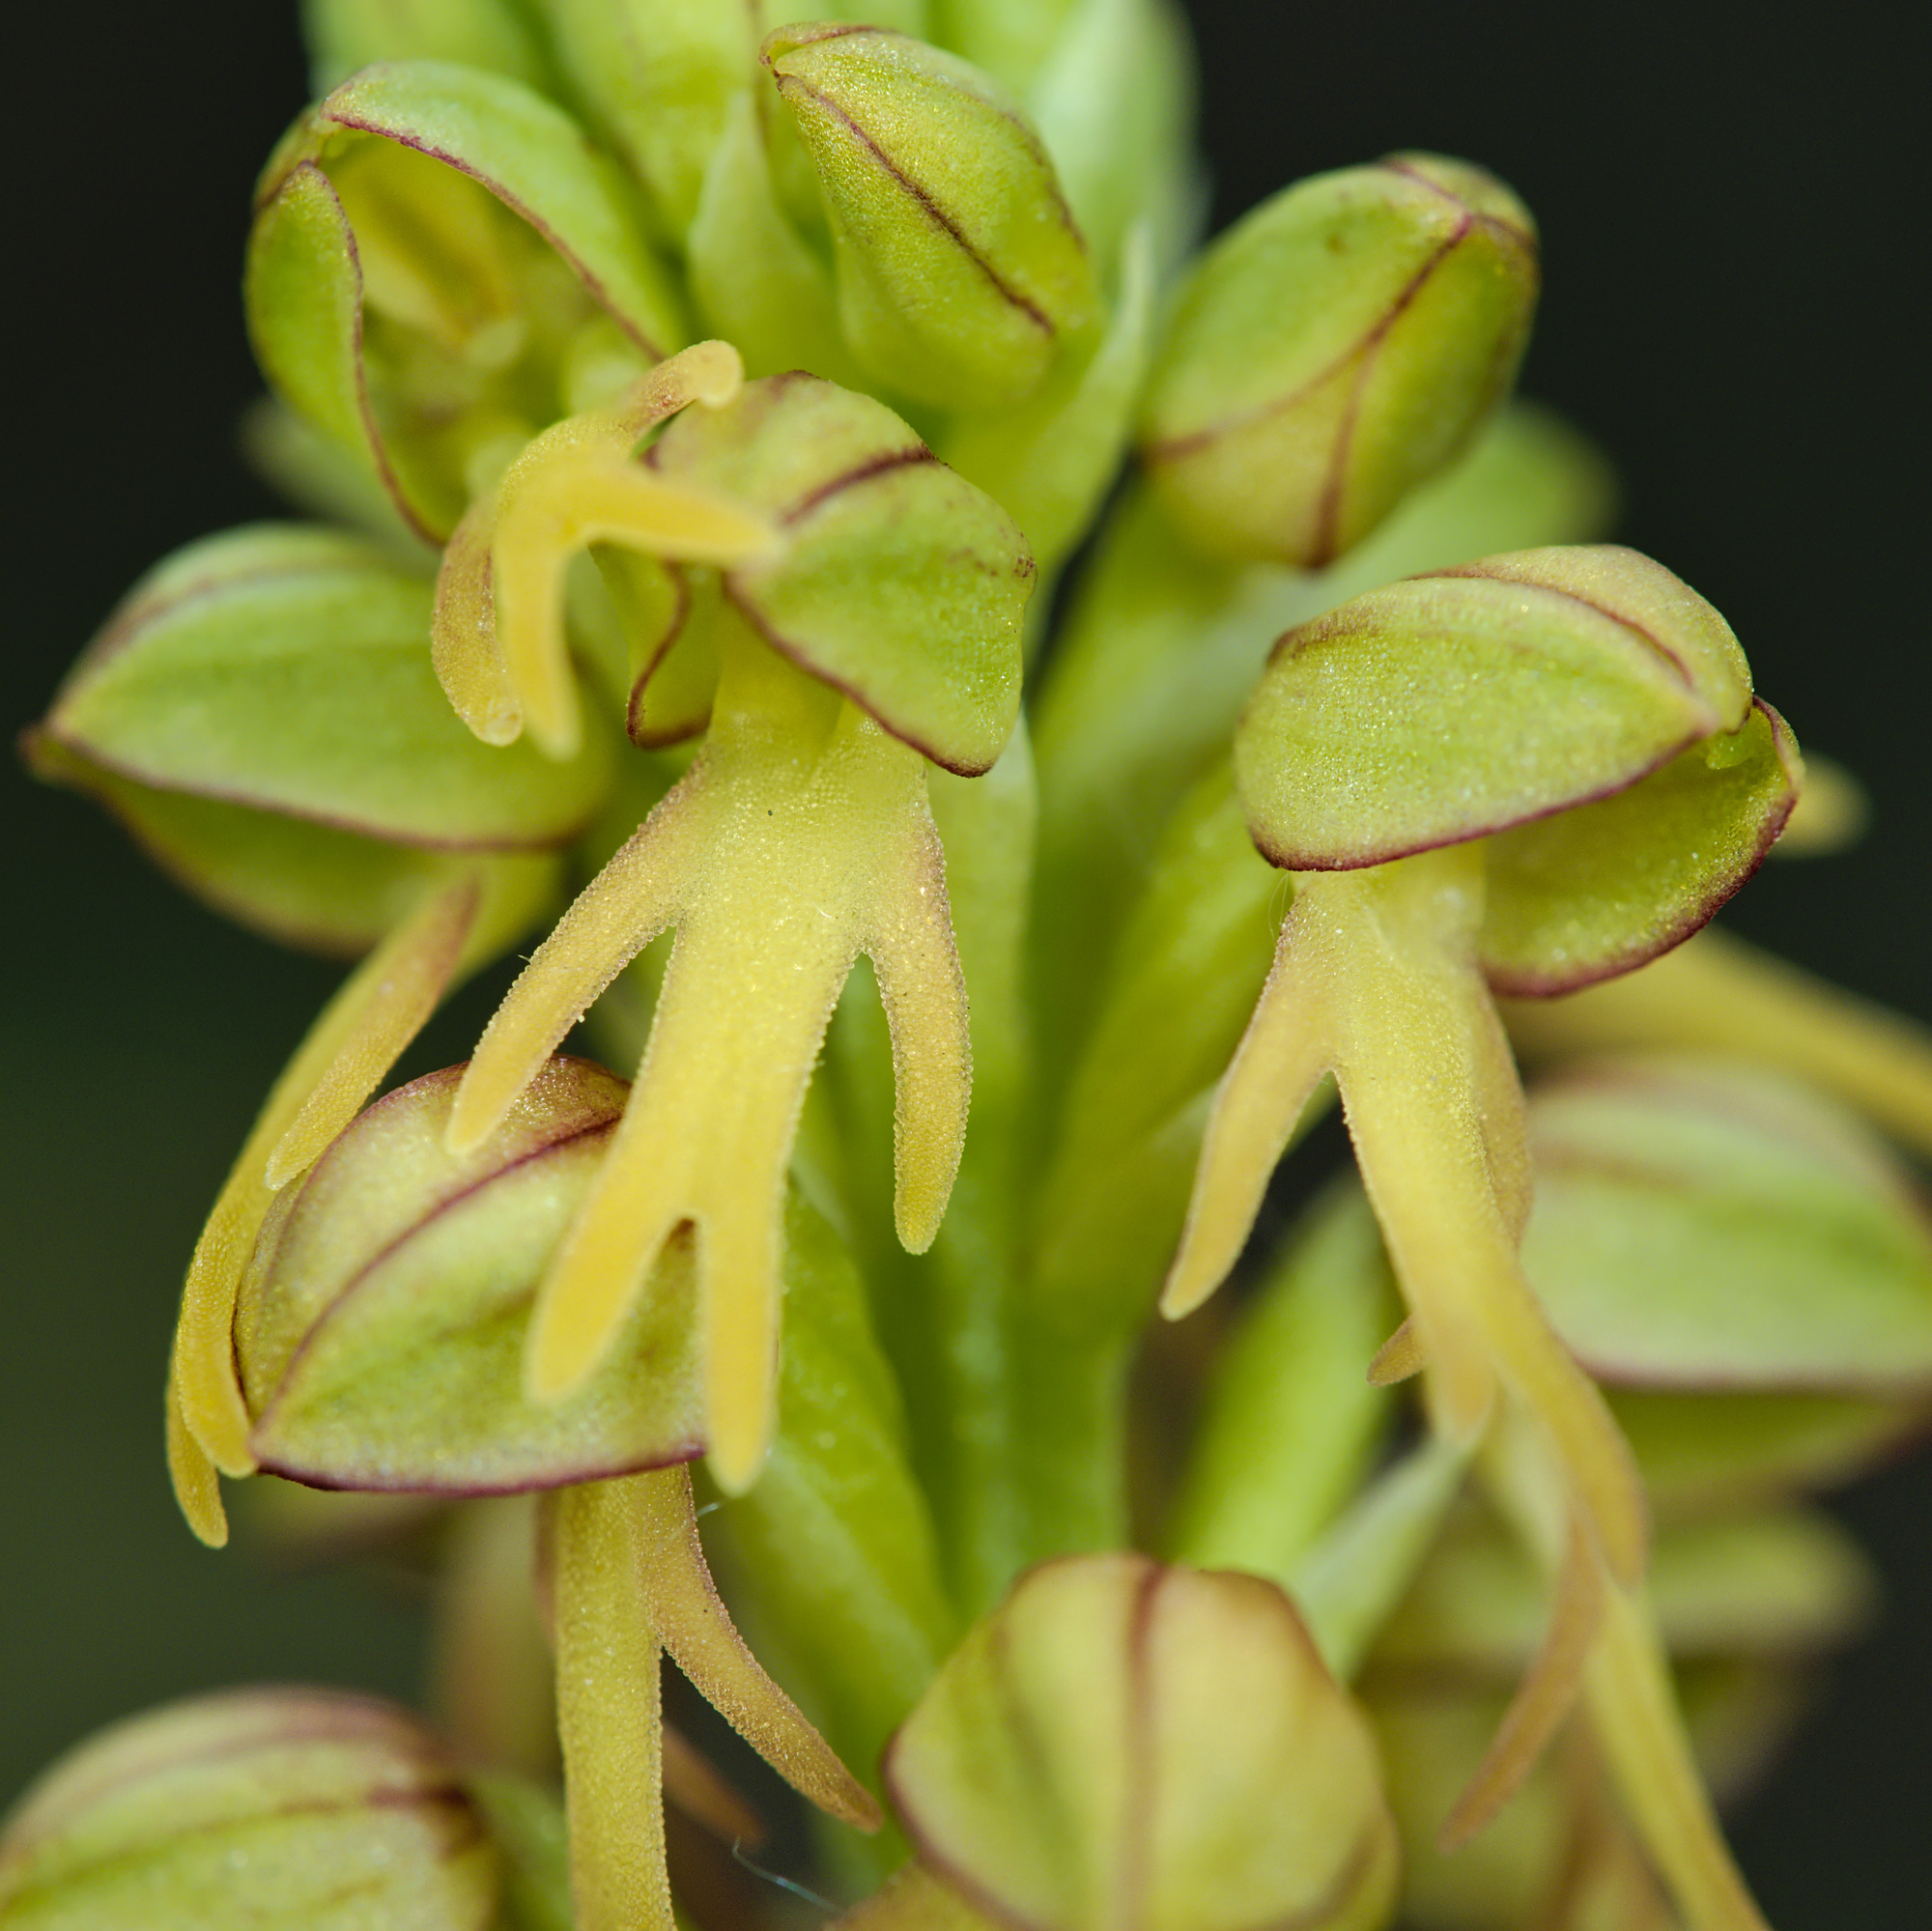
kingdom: Plantae
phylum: Tracheophyta
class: Liliopsida
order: Asparagales
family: Orchidaceae
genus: Orchis
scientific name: Orchis anthropophora
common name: Man orchid
